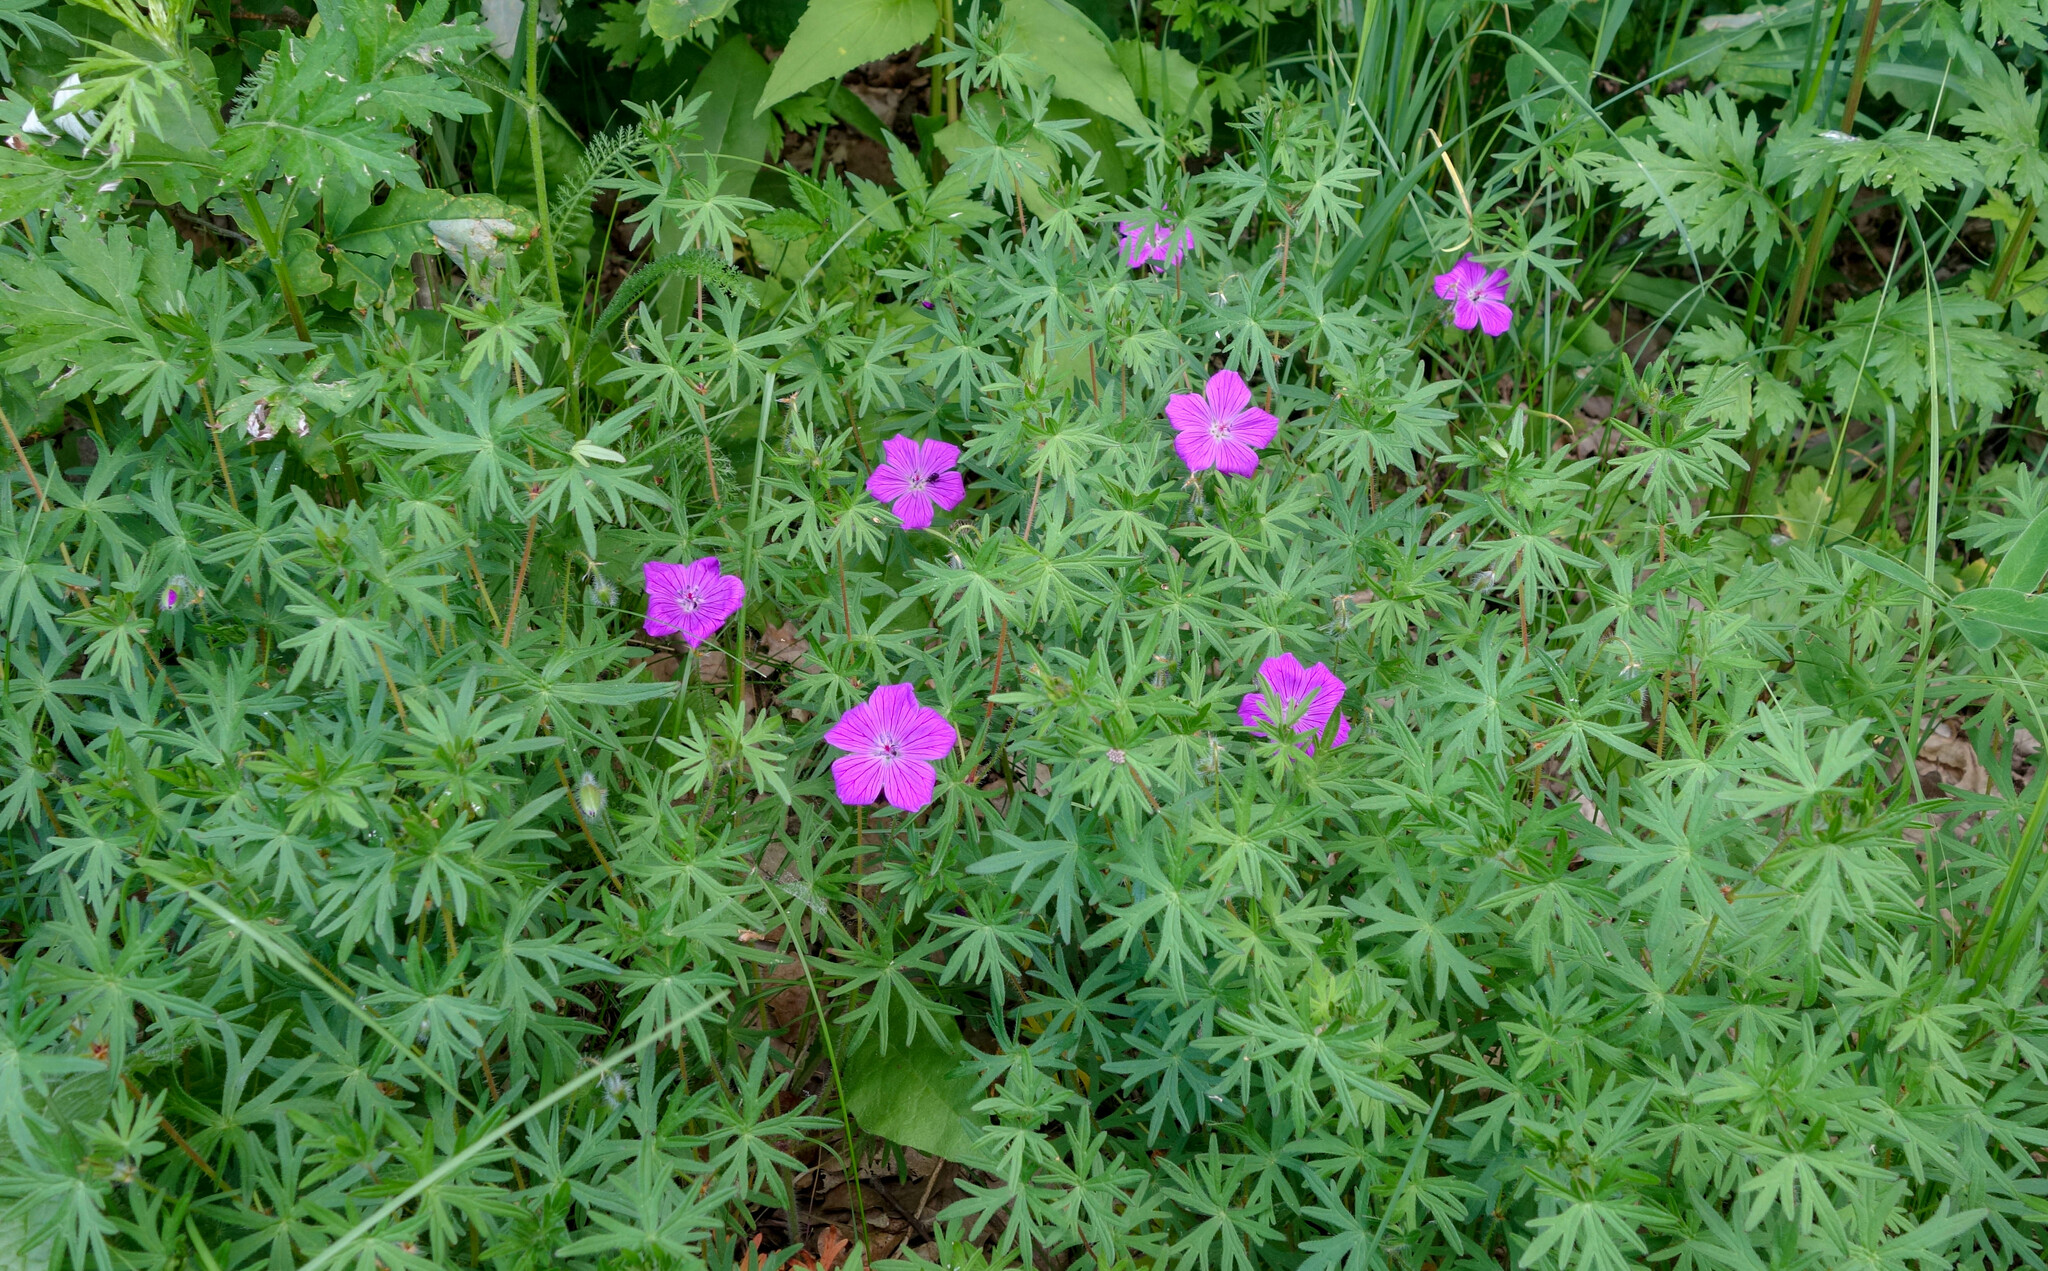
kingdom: Plantae
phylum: Tracheophyta
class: Magnoliopsida
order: Geraniales
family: Geraniaceae
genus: Geranium
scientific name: Geranium sanguineum
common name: Bloody crane's-bill
